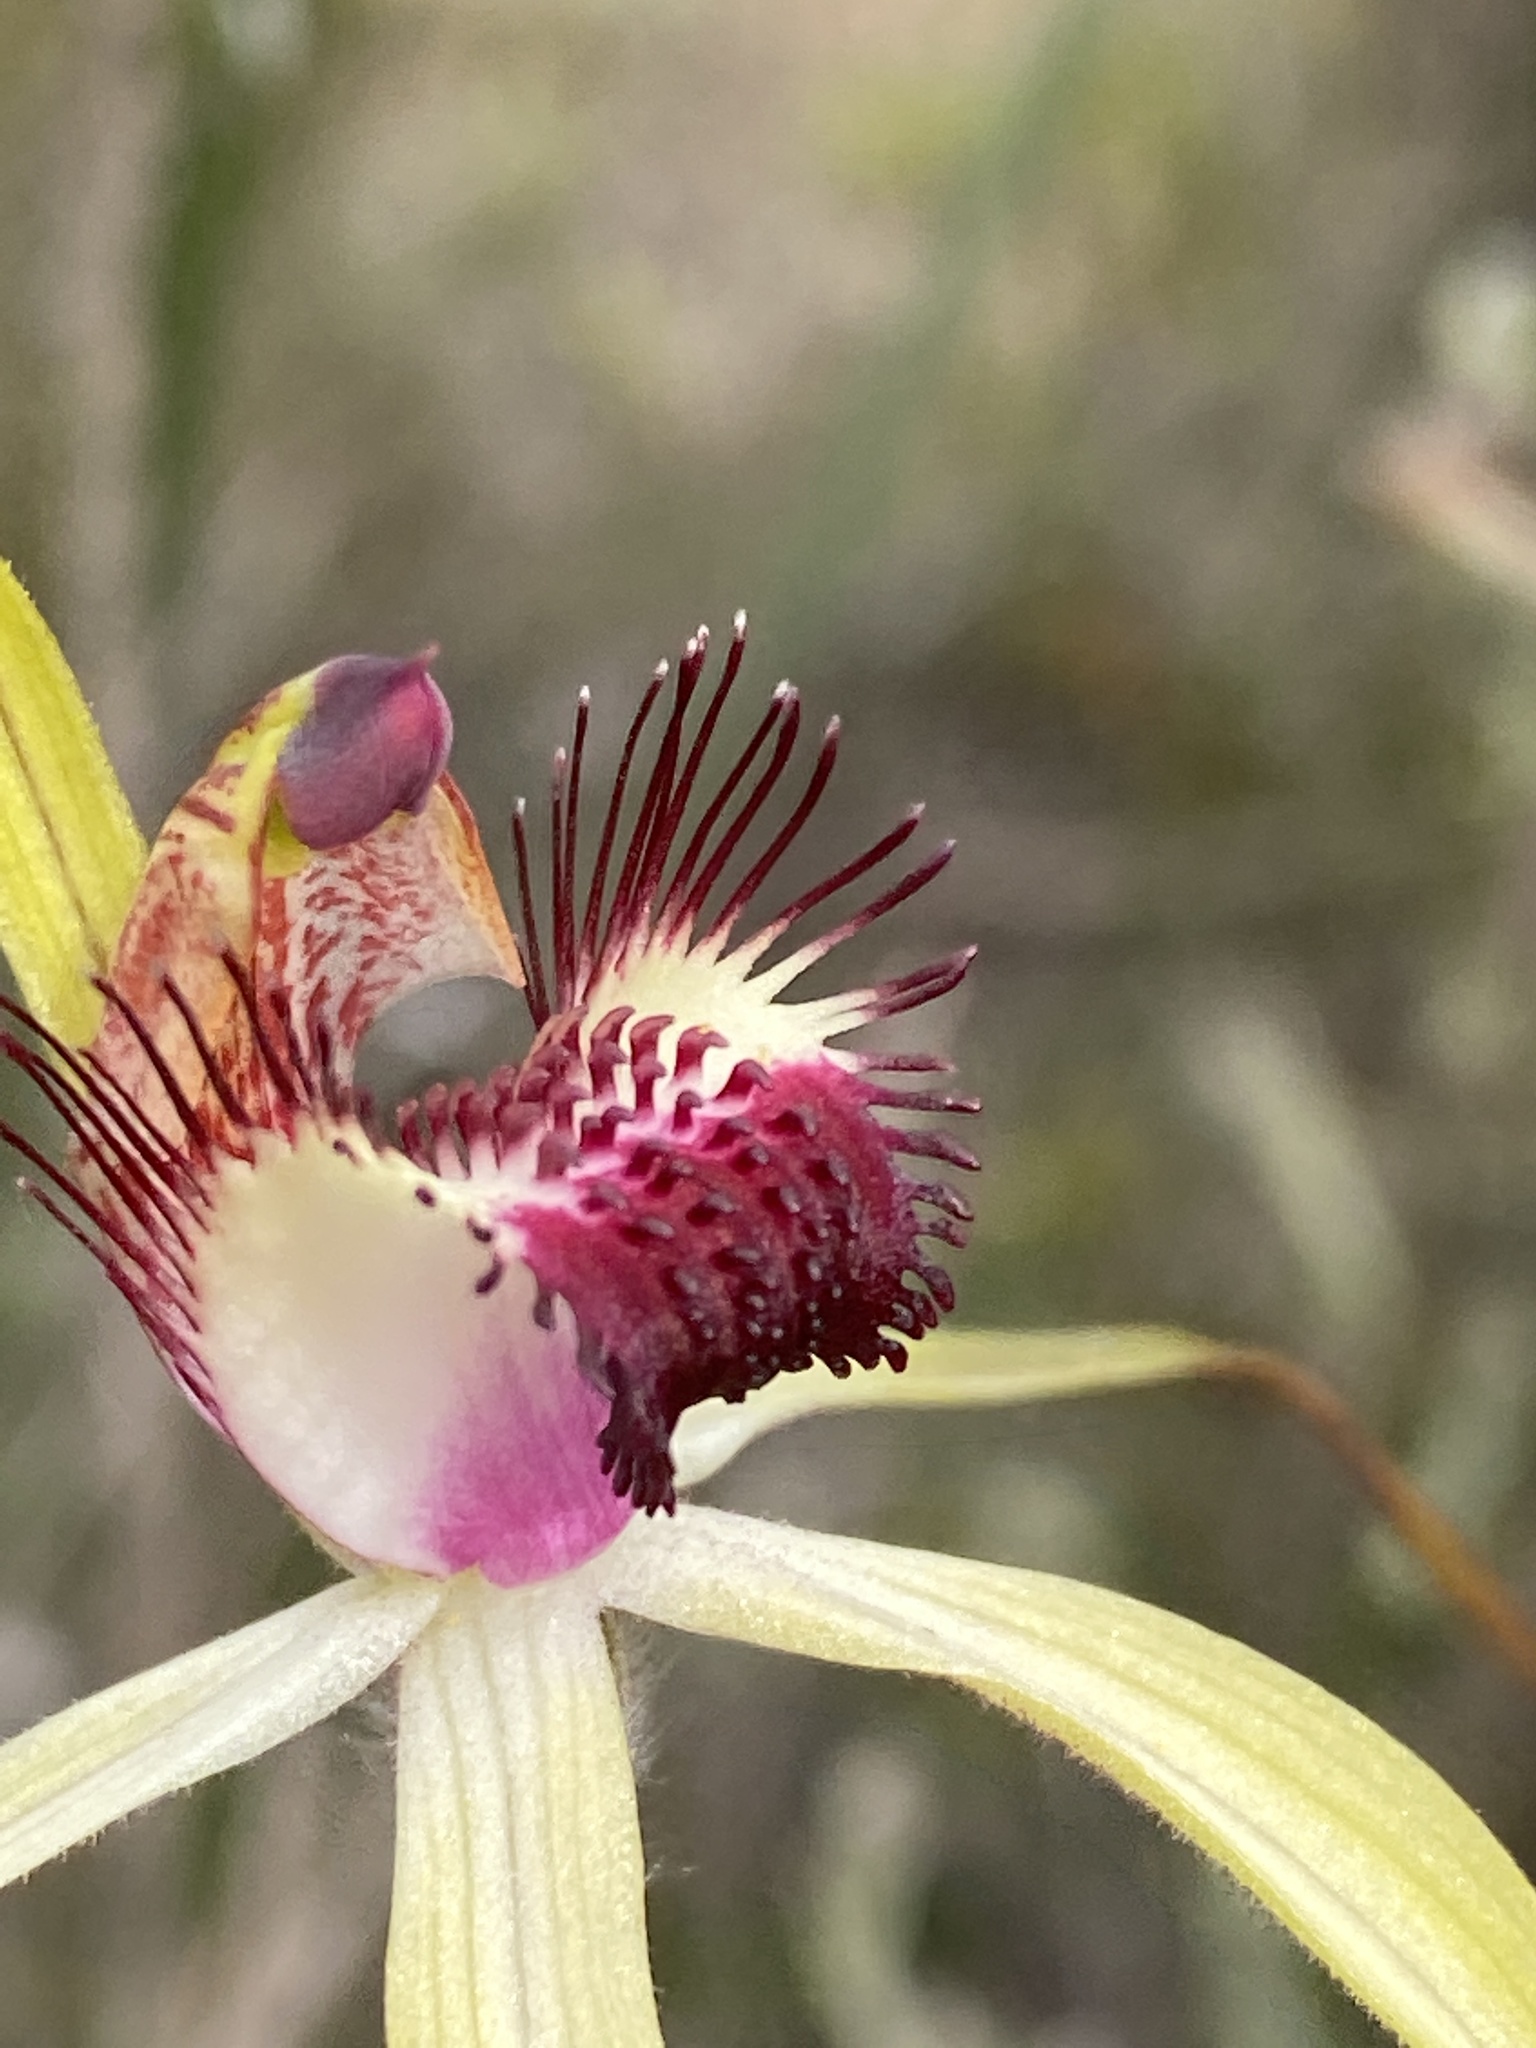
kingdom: Plantae
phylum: Tracheophyta
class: Liliopsida
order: Asparagales
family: Orchidaceae
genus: Caladenia
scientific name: Caladenia lorea
